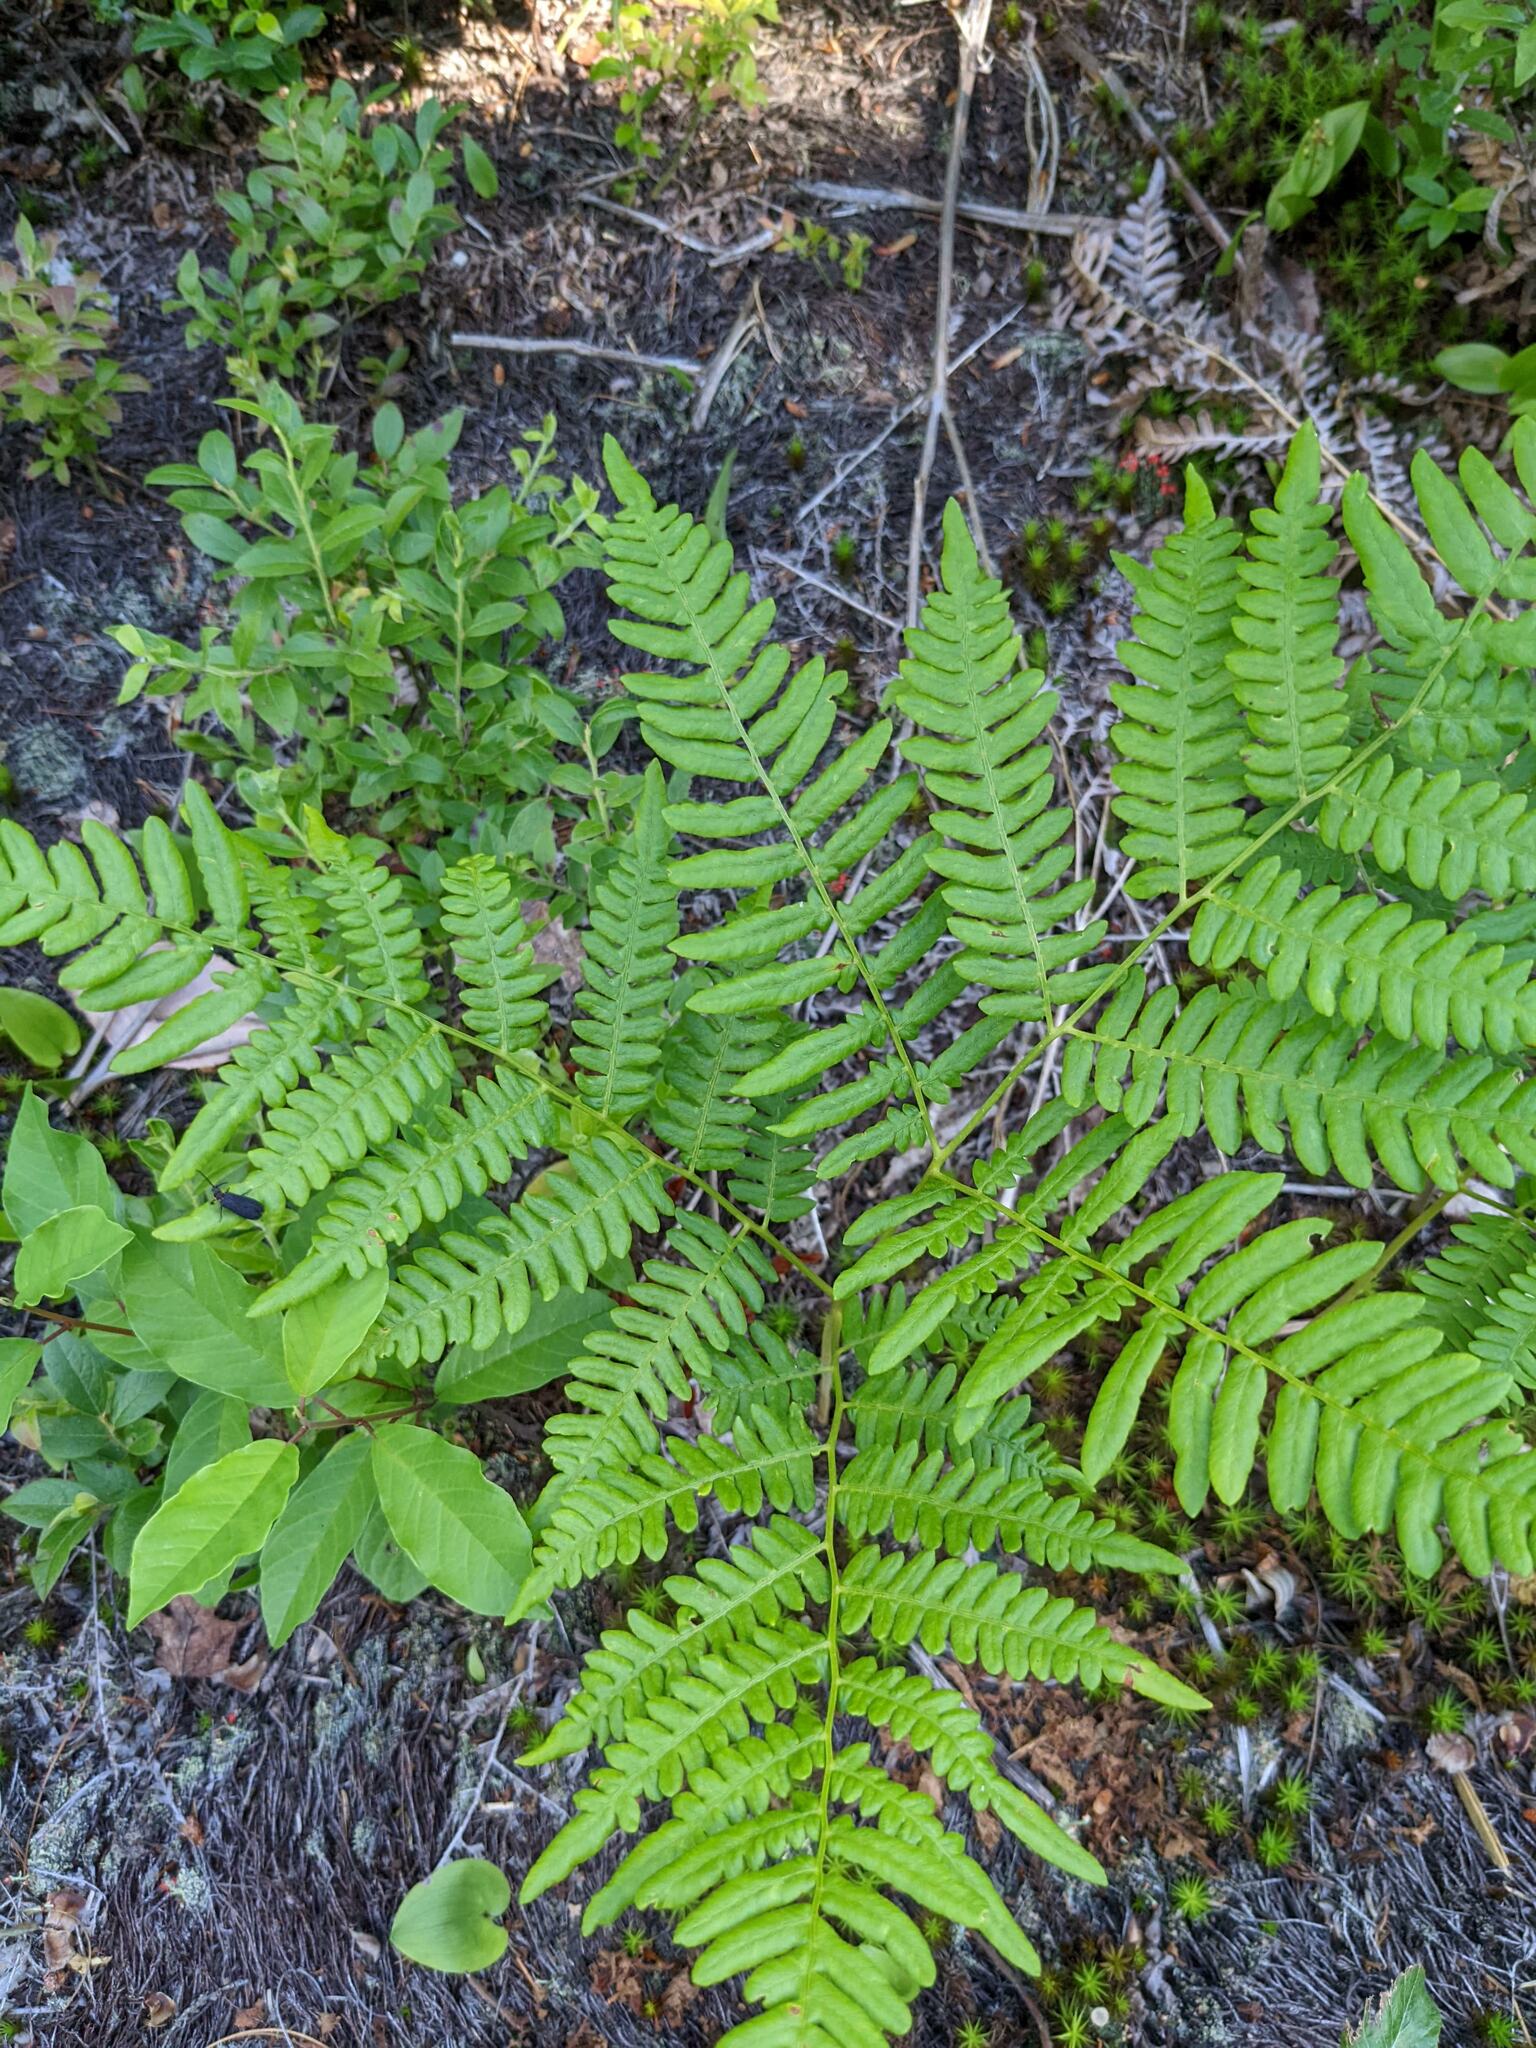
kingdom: Plantae
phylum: Tracheophyta
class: Polypodiopsida
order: Polypodiales
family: Dennstaedtiaceae
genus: Pteridium
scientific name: Pteridium aquilinum
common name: Bracken
